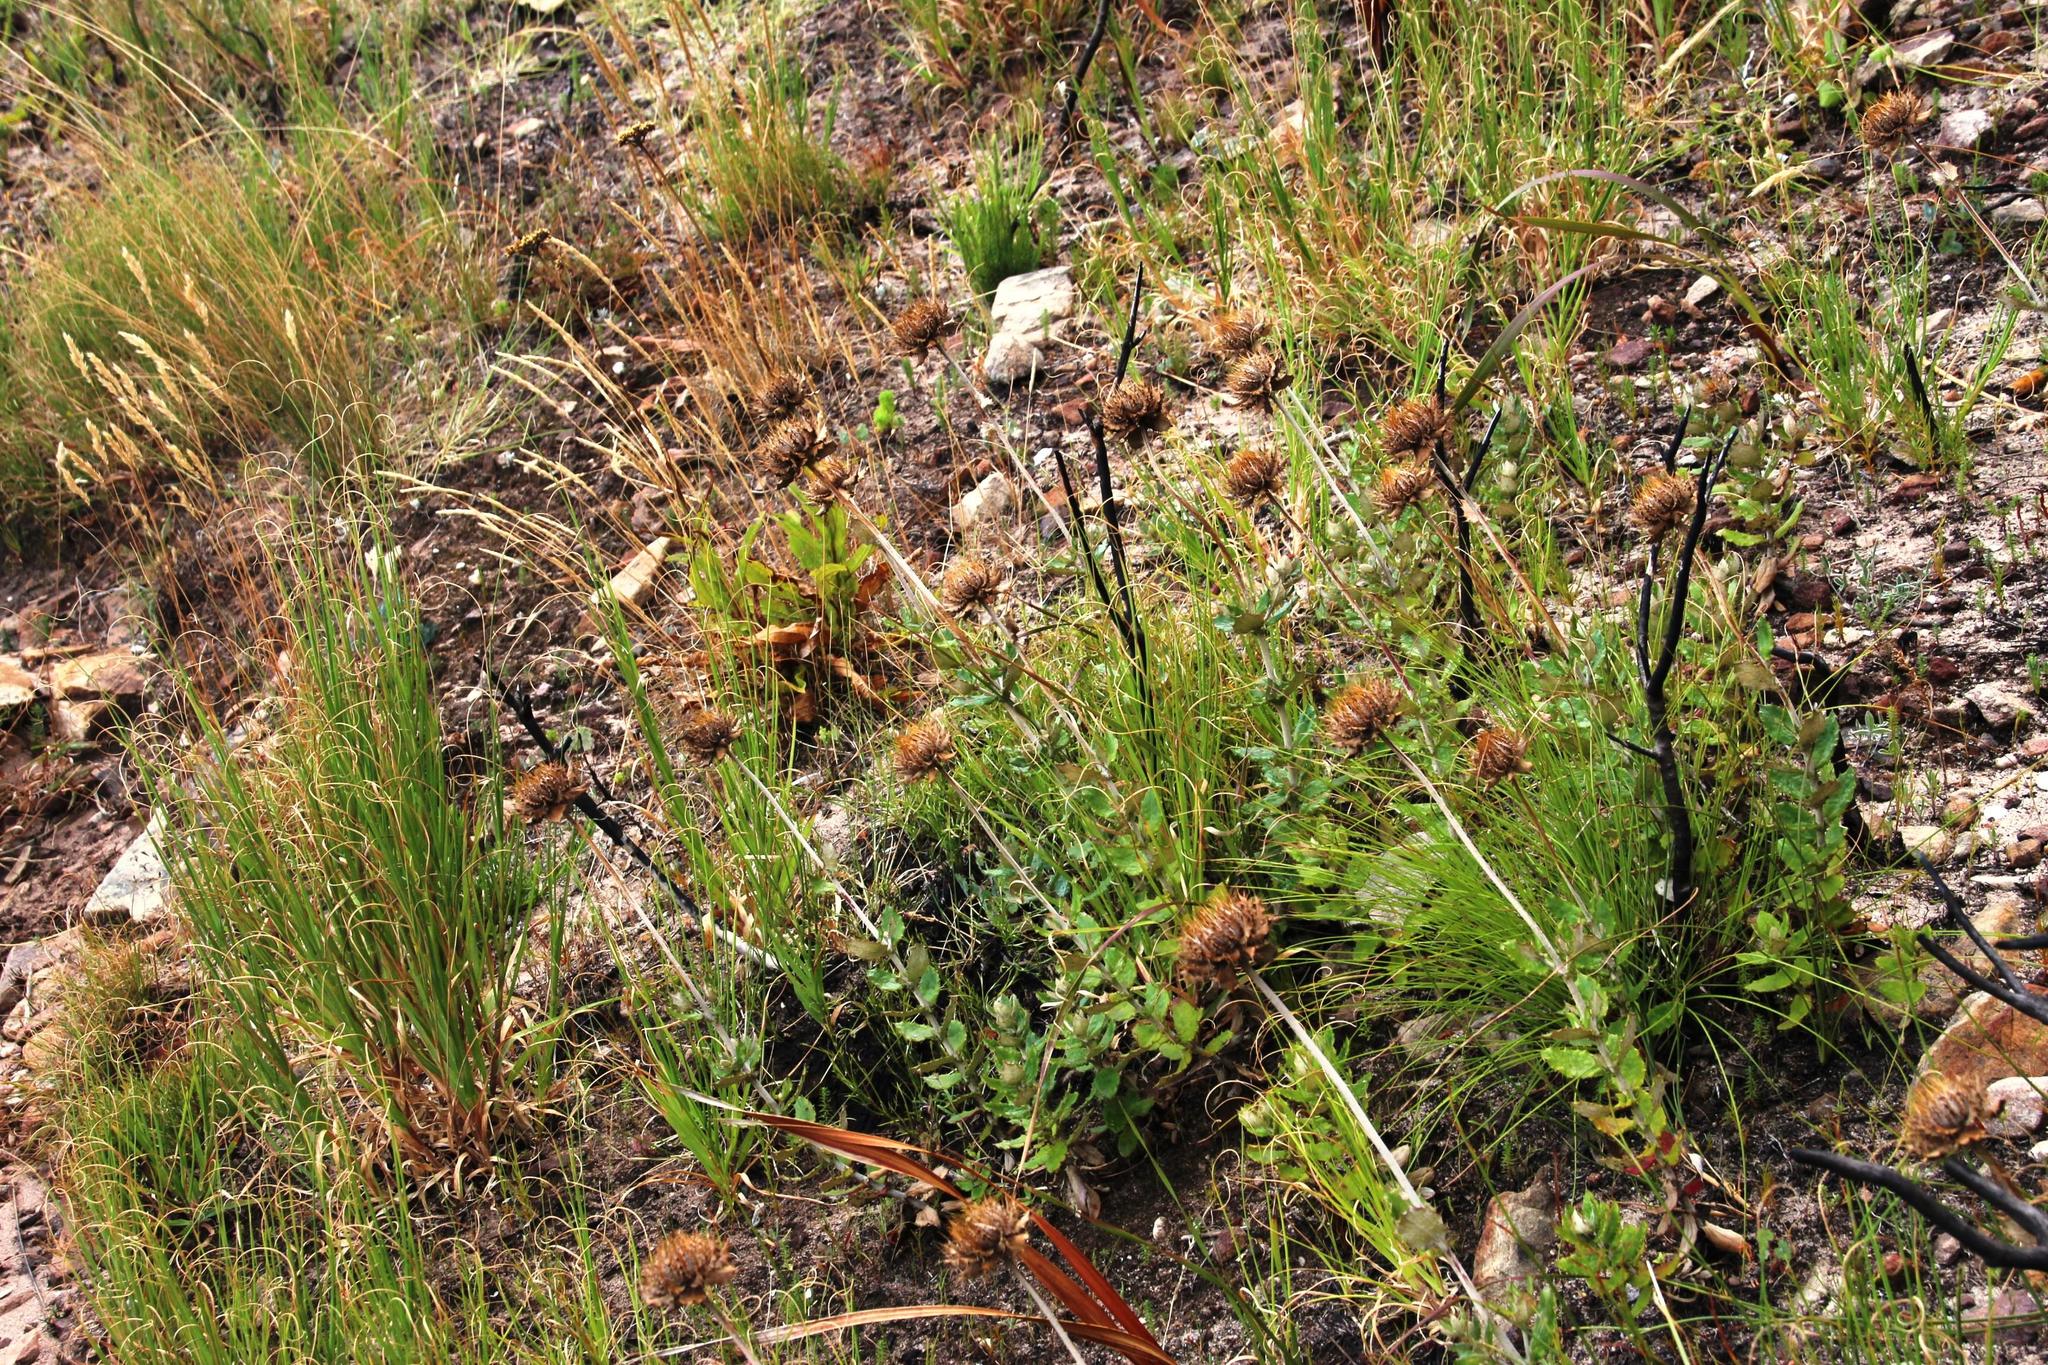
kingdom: Plantae
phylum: Tracheophyta
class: Magnoliopsida
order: Asterales
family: Asteraceae
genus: Berkheya
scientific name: Berkheya barbata
